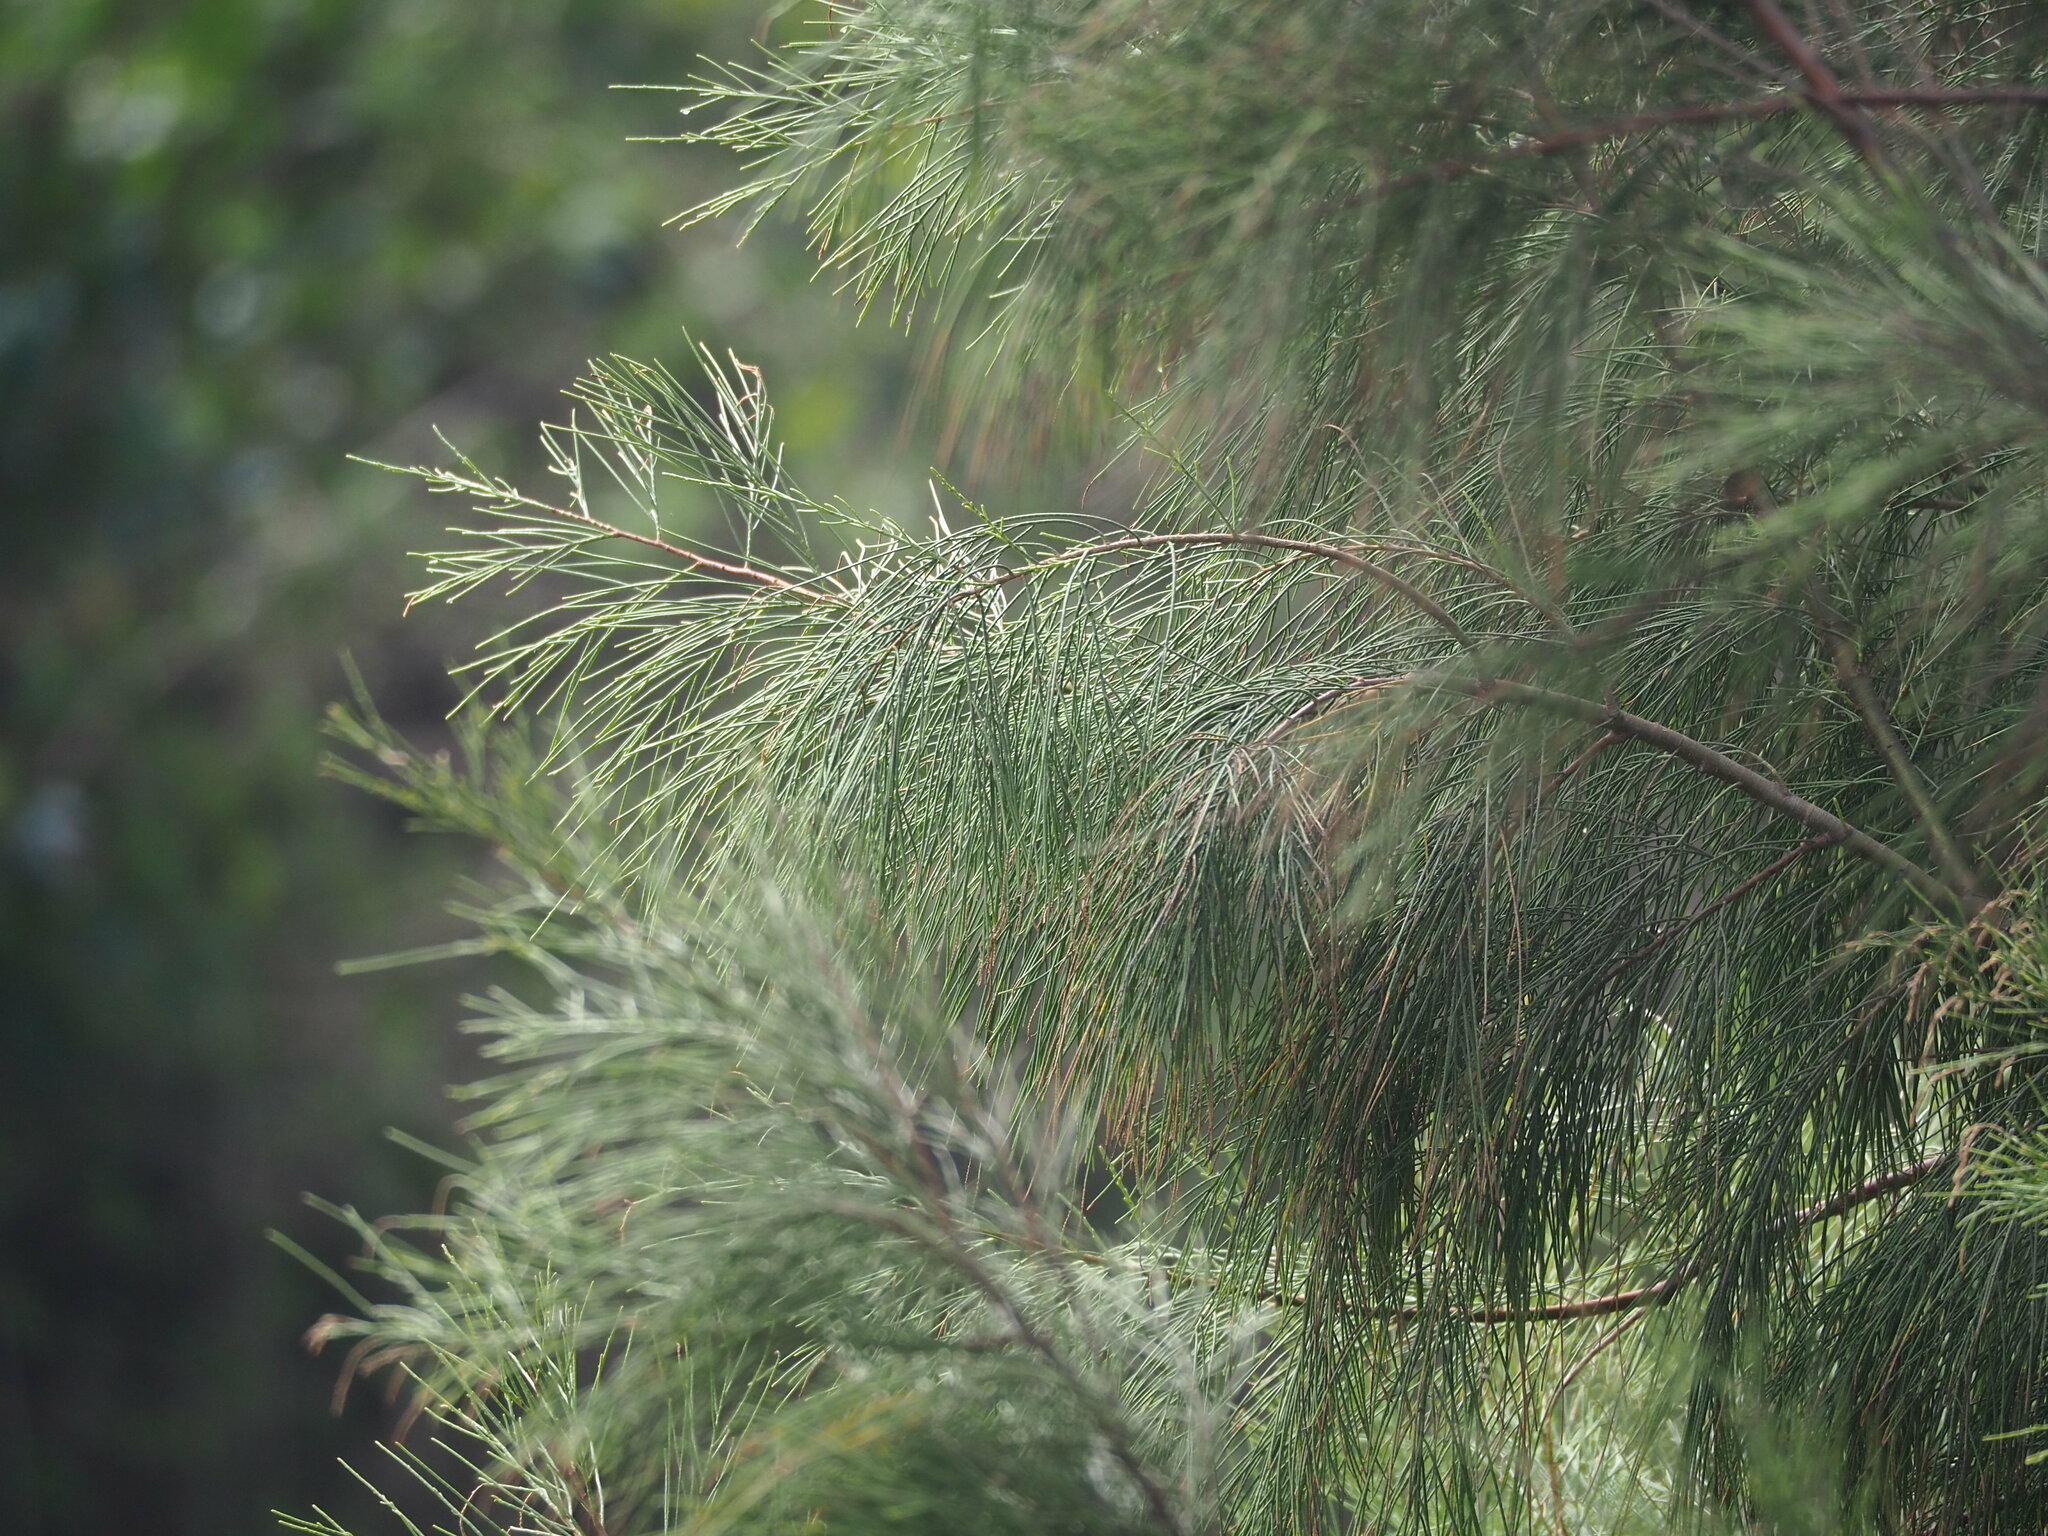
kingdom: Plantae
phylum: Tracheophyta
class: Magnoliopsida
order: Fagales
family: Casuarinaceae
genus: Casuarina
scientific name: Casuarina equisetifolia
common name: Beach sheoak
